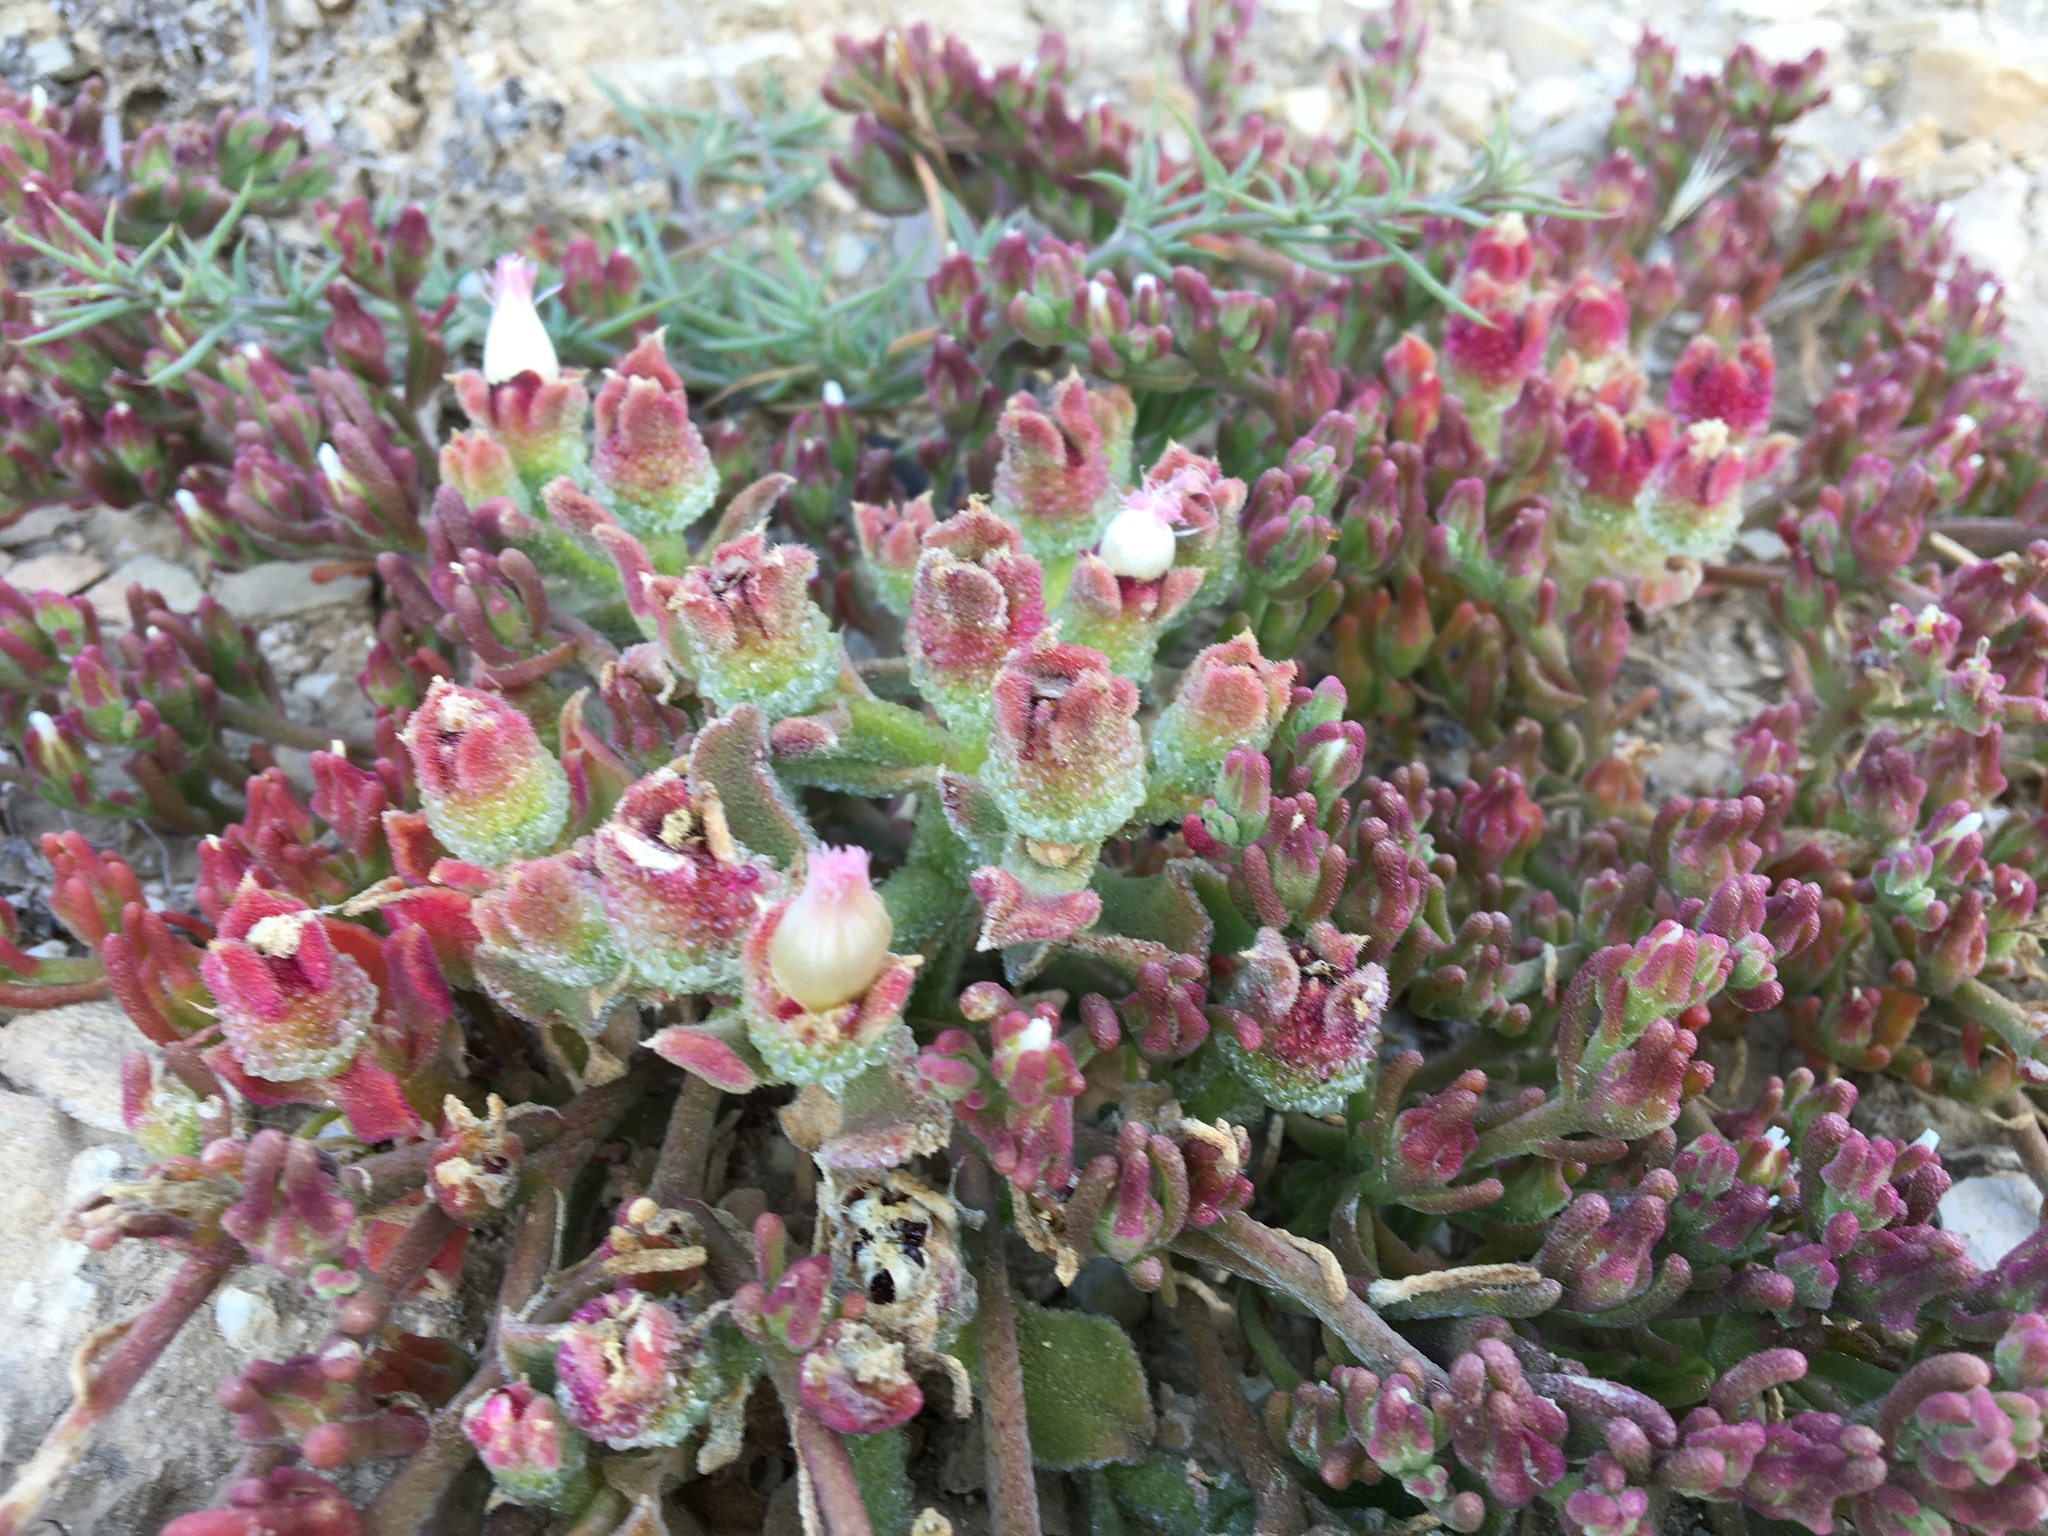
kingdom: Plantae
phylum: Tracheophyta
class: Magnoliopsida
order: Caryophyllales
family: Aizoaceae
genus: Mesembryanthemum
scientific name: Mesembryanthemum nodiflorum
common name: Slenderleaf iceplant
